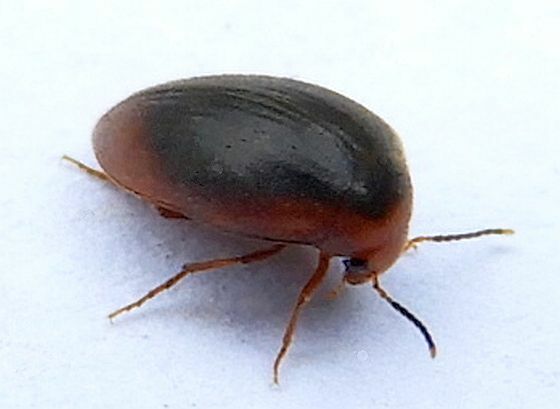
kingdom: Animalia
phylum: Arthropoda
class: Insecta
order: Coleoptera
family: Eucinetidae
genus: Nycteus
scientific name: Nycteus oviformis
